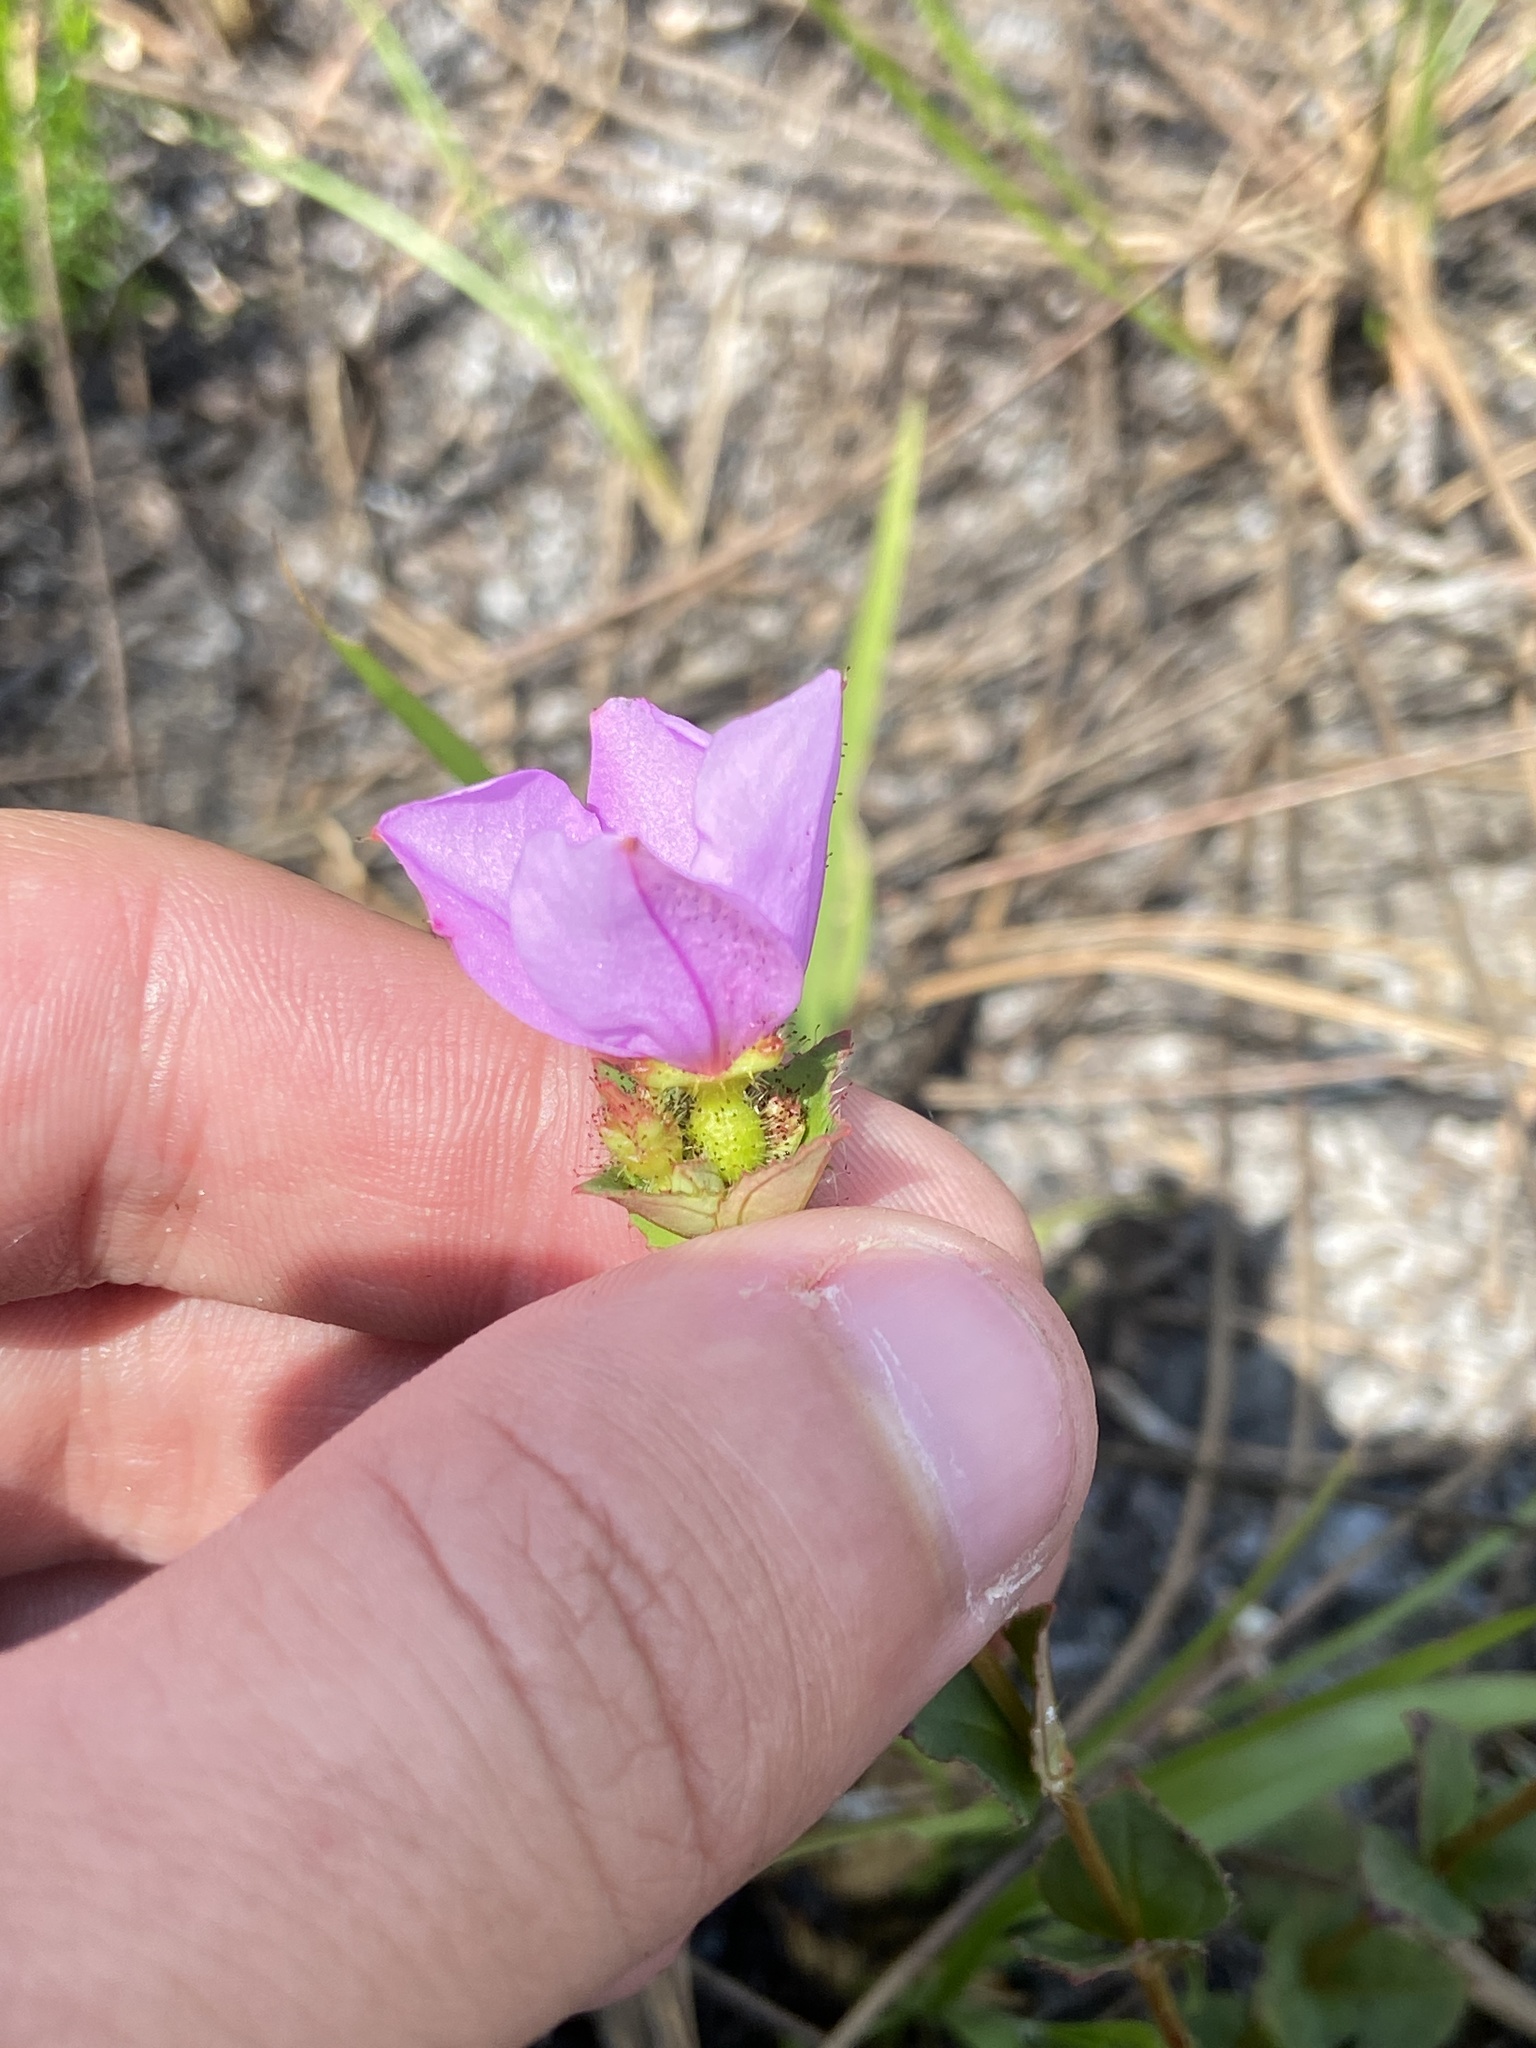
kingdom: Plantae
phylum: Tracheophyta
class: Magnoliopsida
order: Myrtales
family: Melastomataceae
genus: Rhexia
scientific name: Rhexia nuttallii
